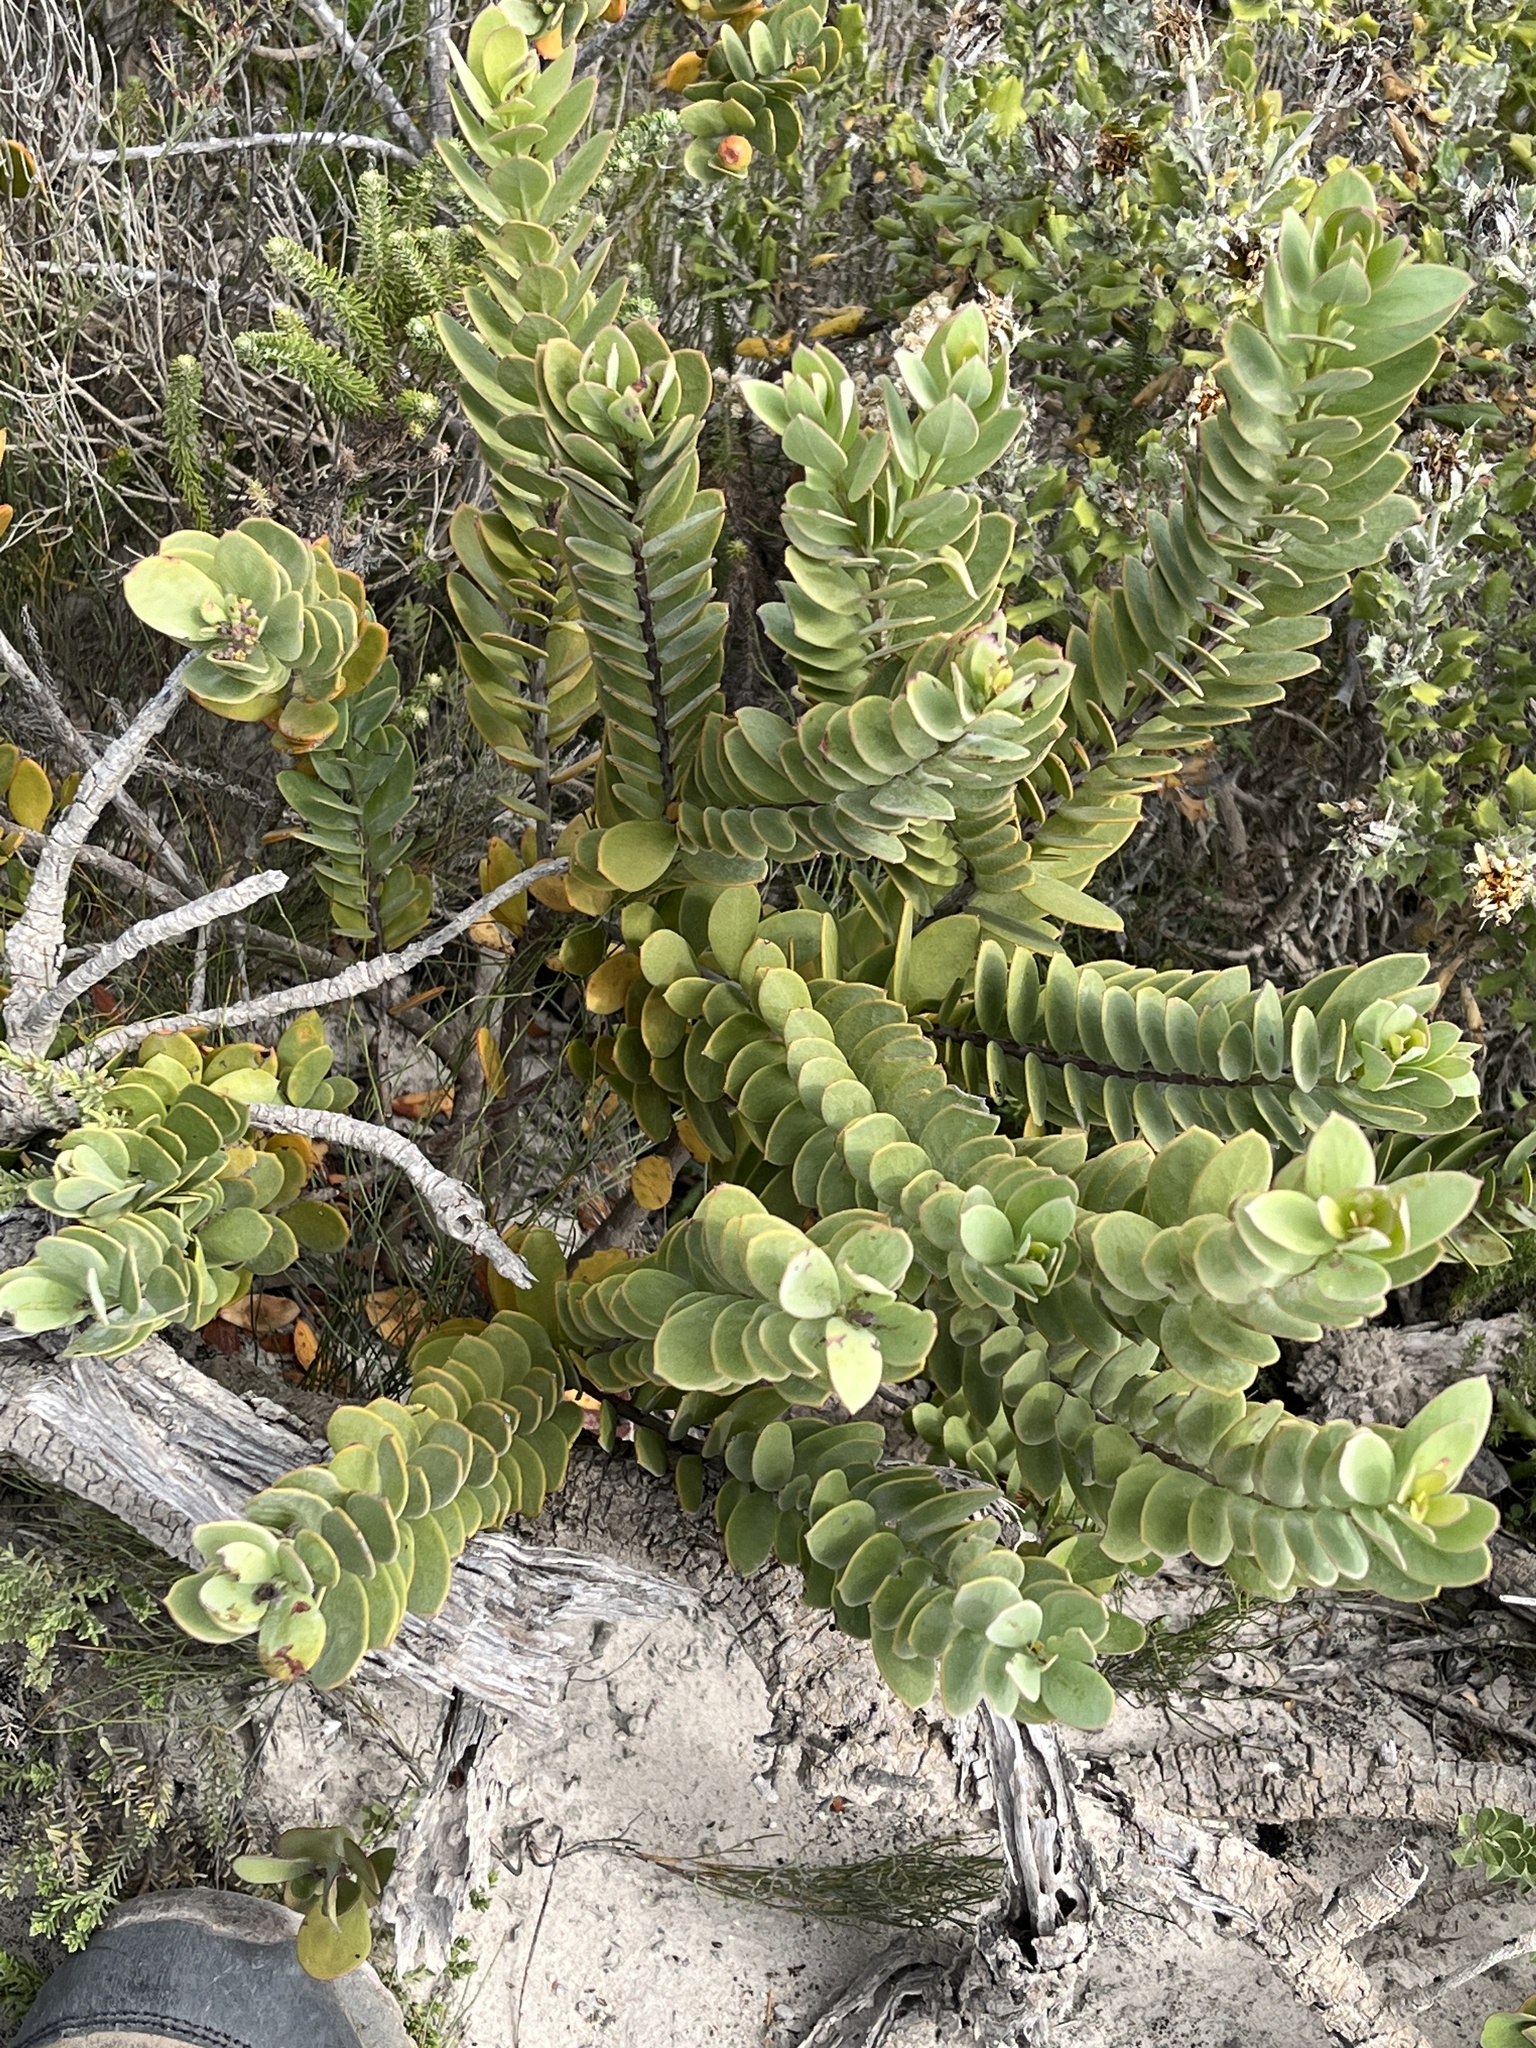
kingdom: Plantae
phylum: Tracheophyta
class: Magnoliopsida
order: Santalales
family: Santalaceae
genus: Osyris
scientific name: Osyris compressa
